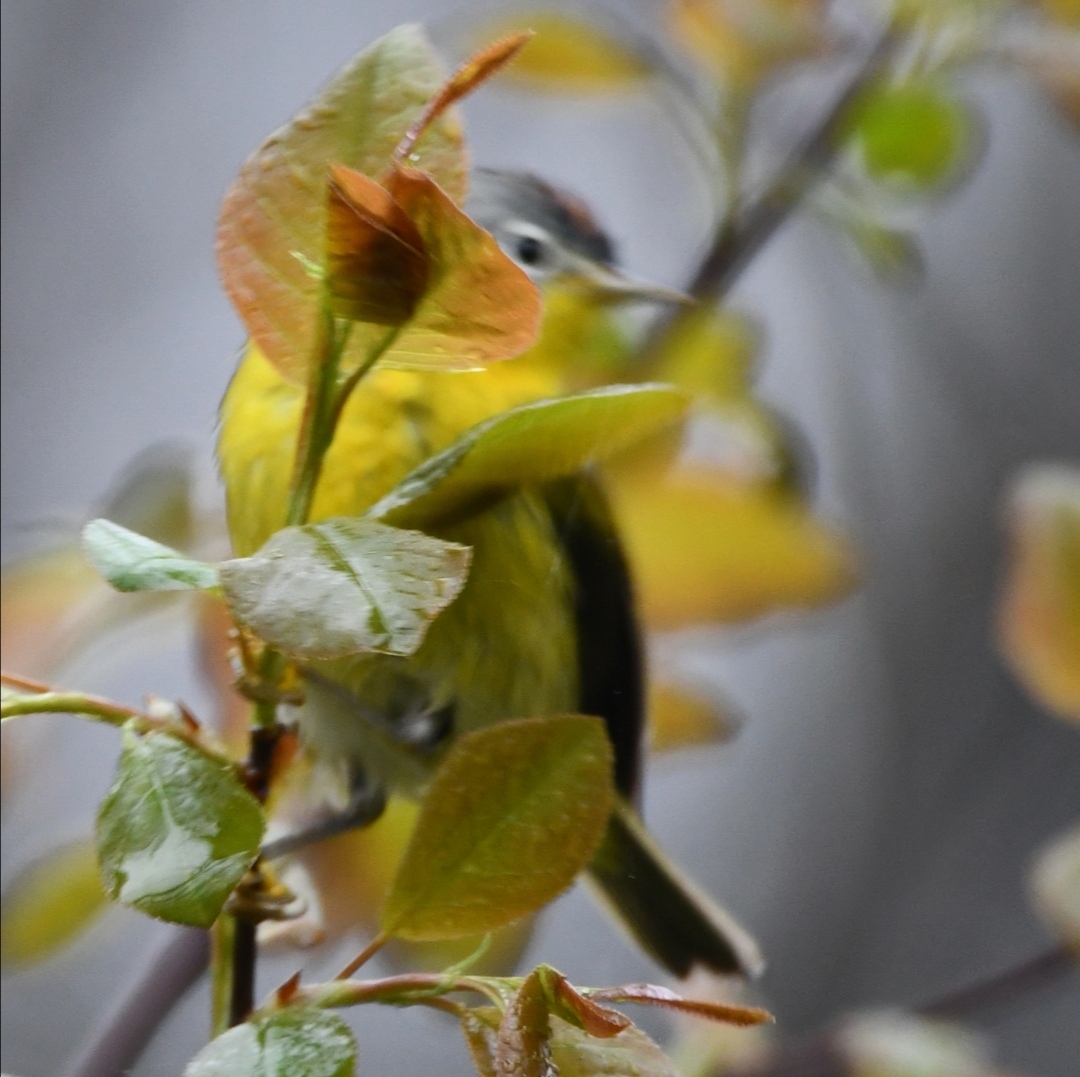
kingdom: Animalia
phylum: Chordata
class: Aves
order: Passeriformes
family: Parulidae
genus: Leiothlypis
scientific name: Leiothlypis ruficapilla
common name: Nashville warbler
